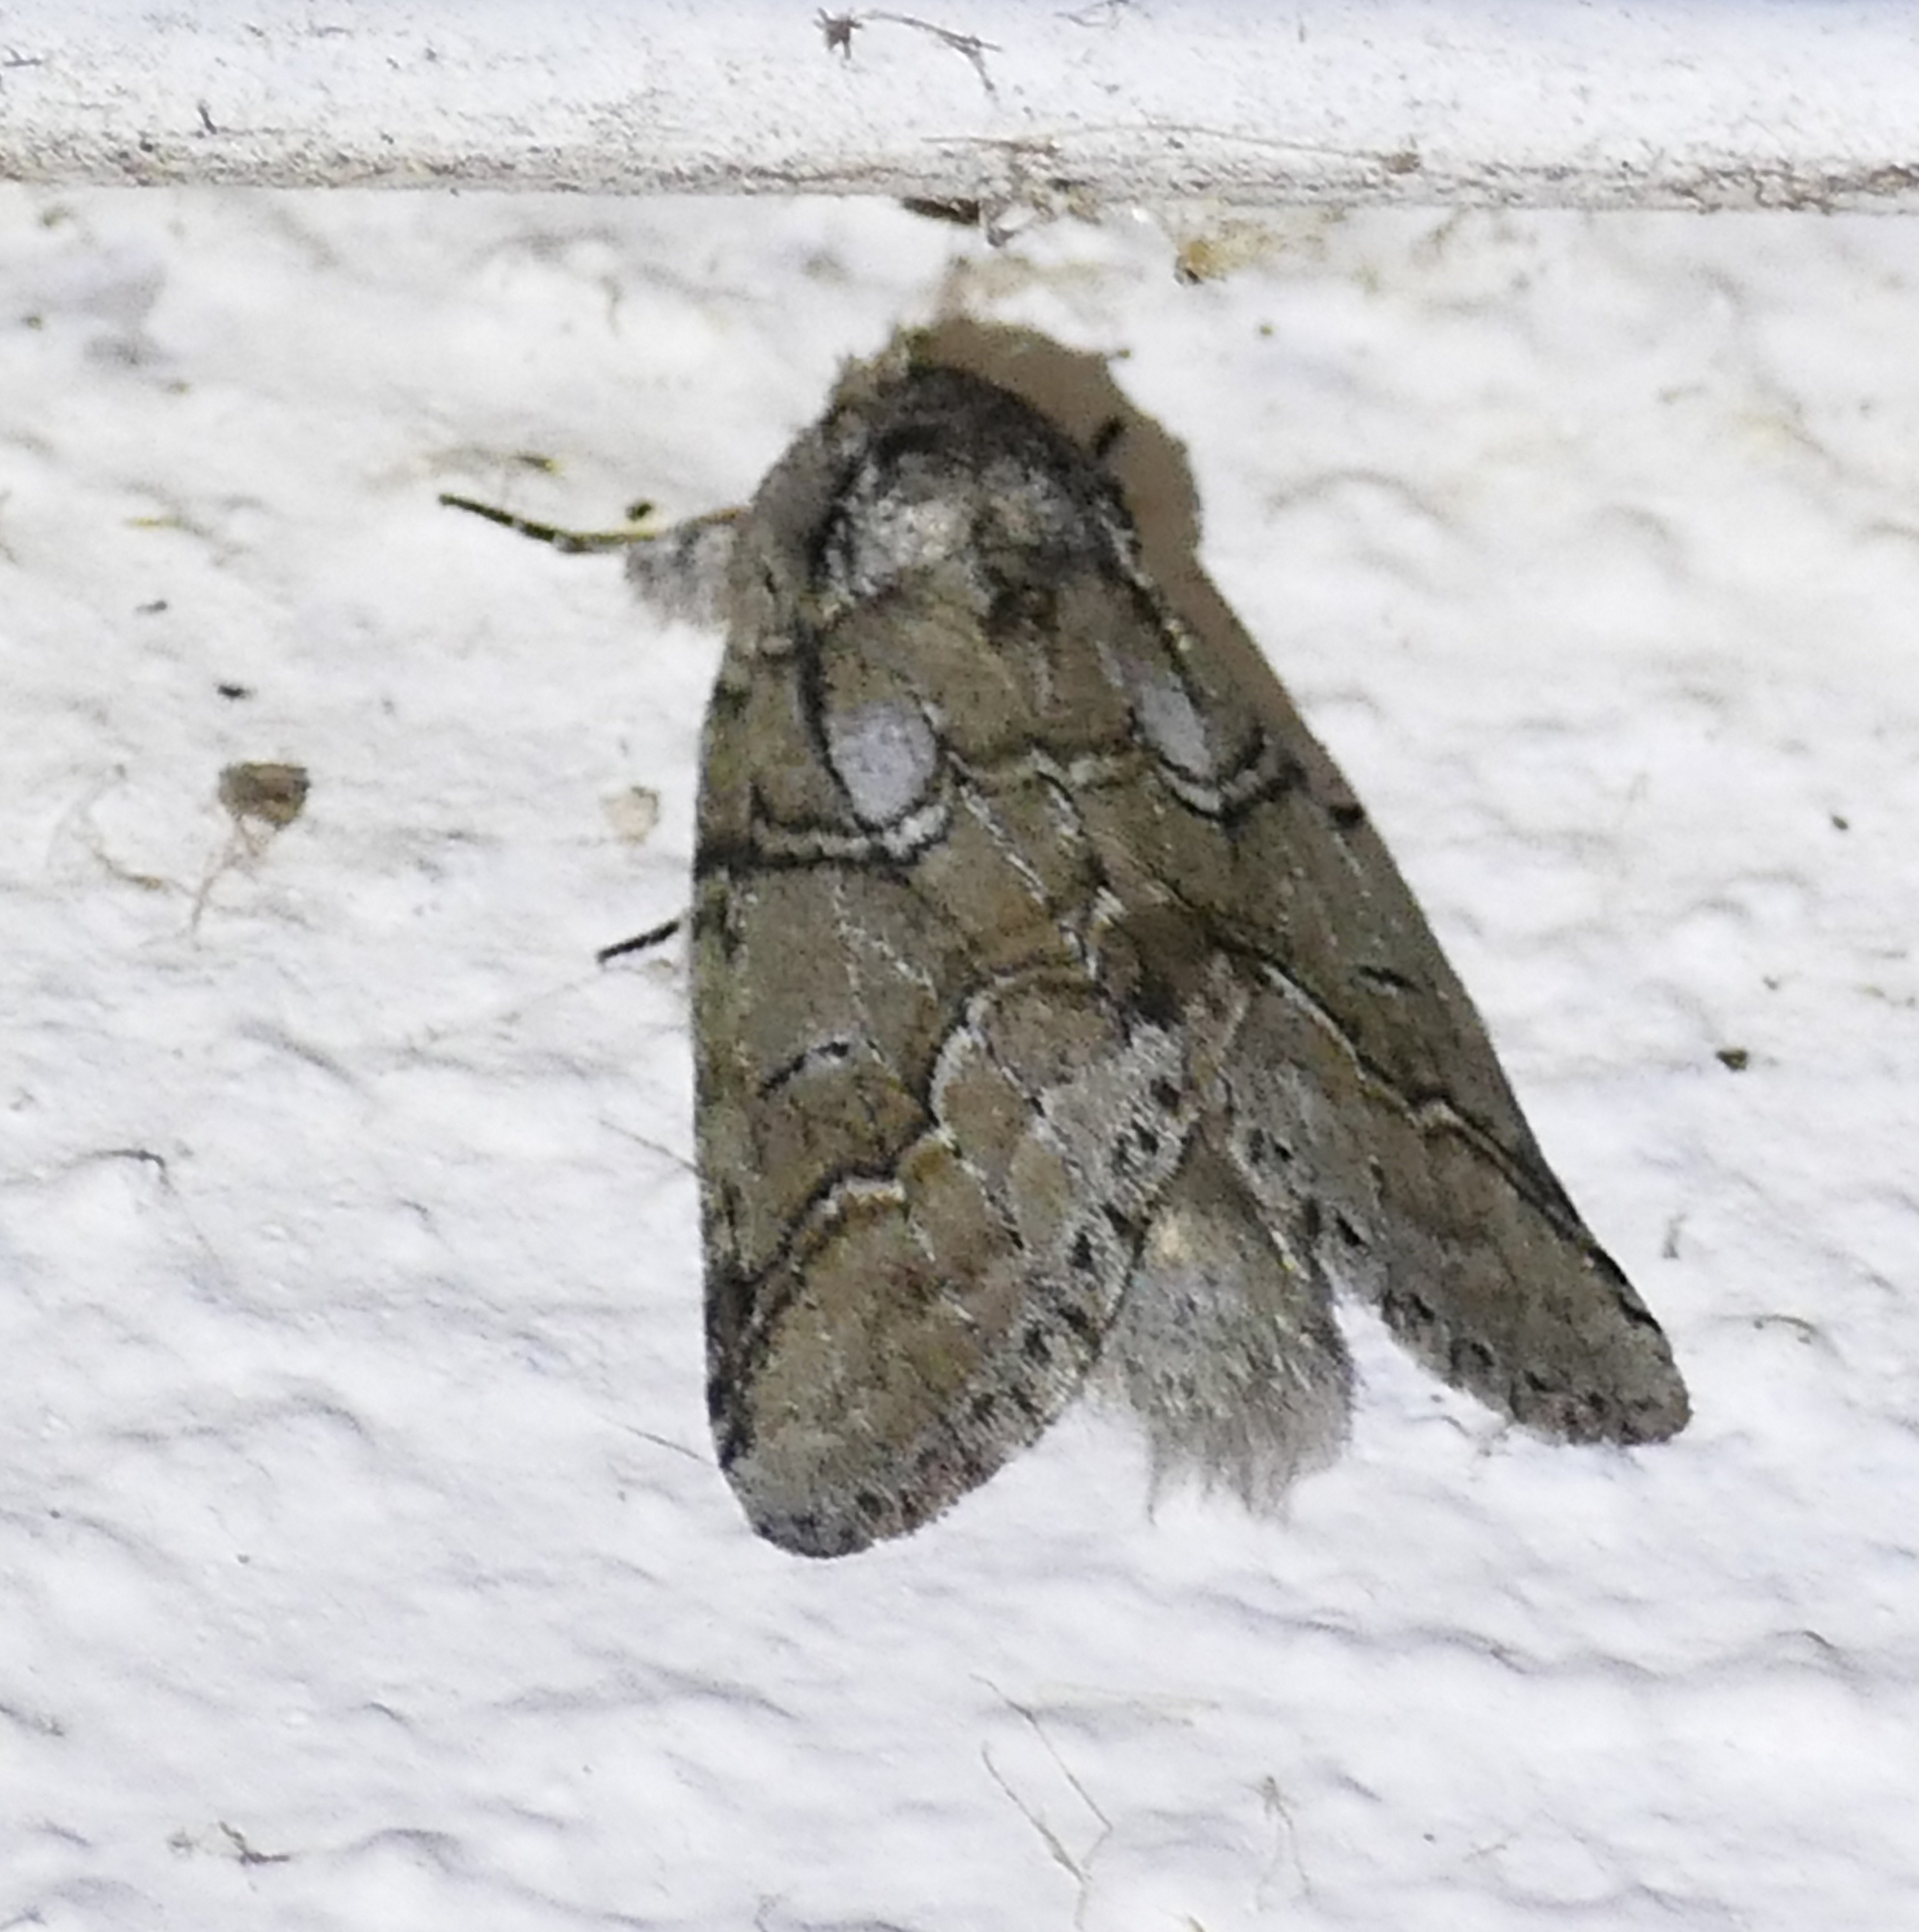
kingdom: Animalia
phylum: Arthropoda
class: Insecta
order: Lepidoptera
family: Notodontidae
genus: Lochmaeus
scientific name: Lochmaeus bilineata
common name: Double-lined prominent
